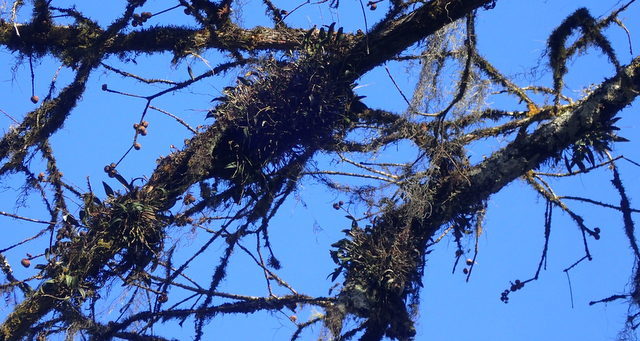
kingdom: Plantae
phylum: Tracheophyta
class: Liliopsida
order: Asparagales
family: Orchidaceae
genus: Epidendrum
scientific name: Epidendrum conopseum
